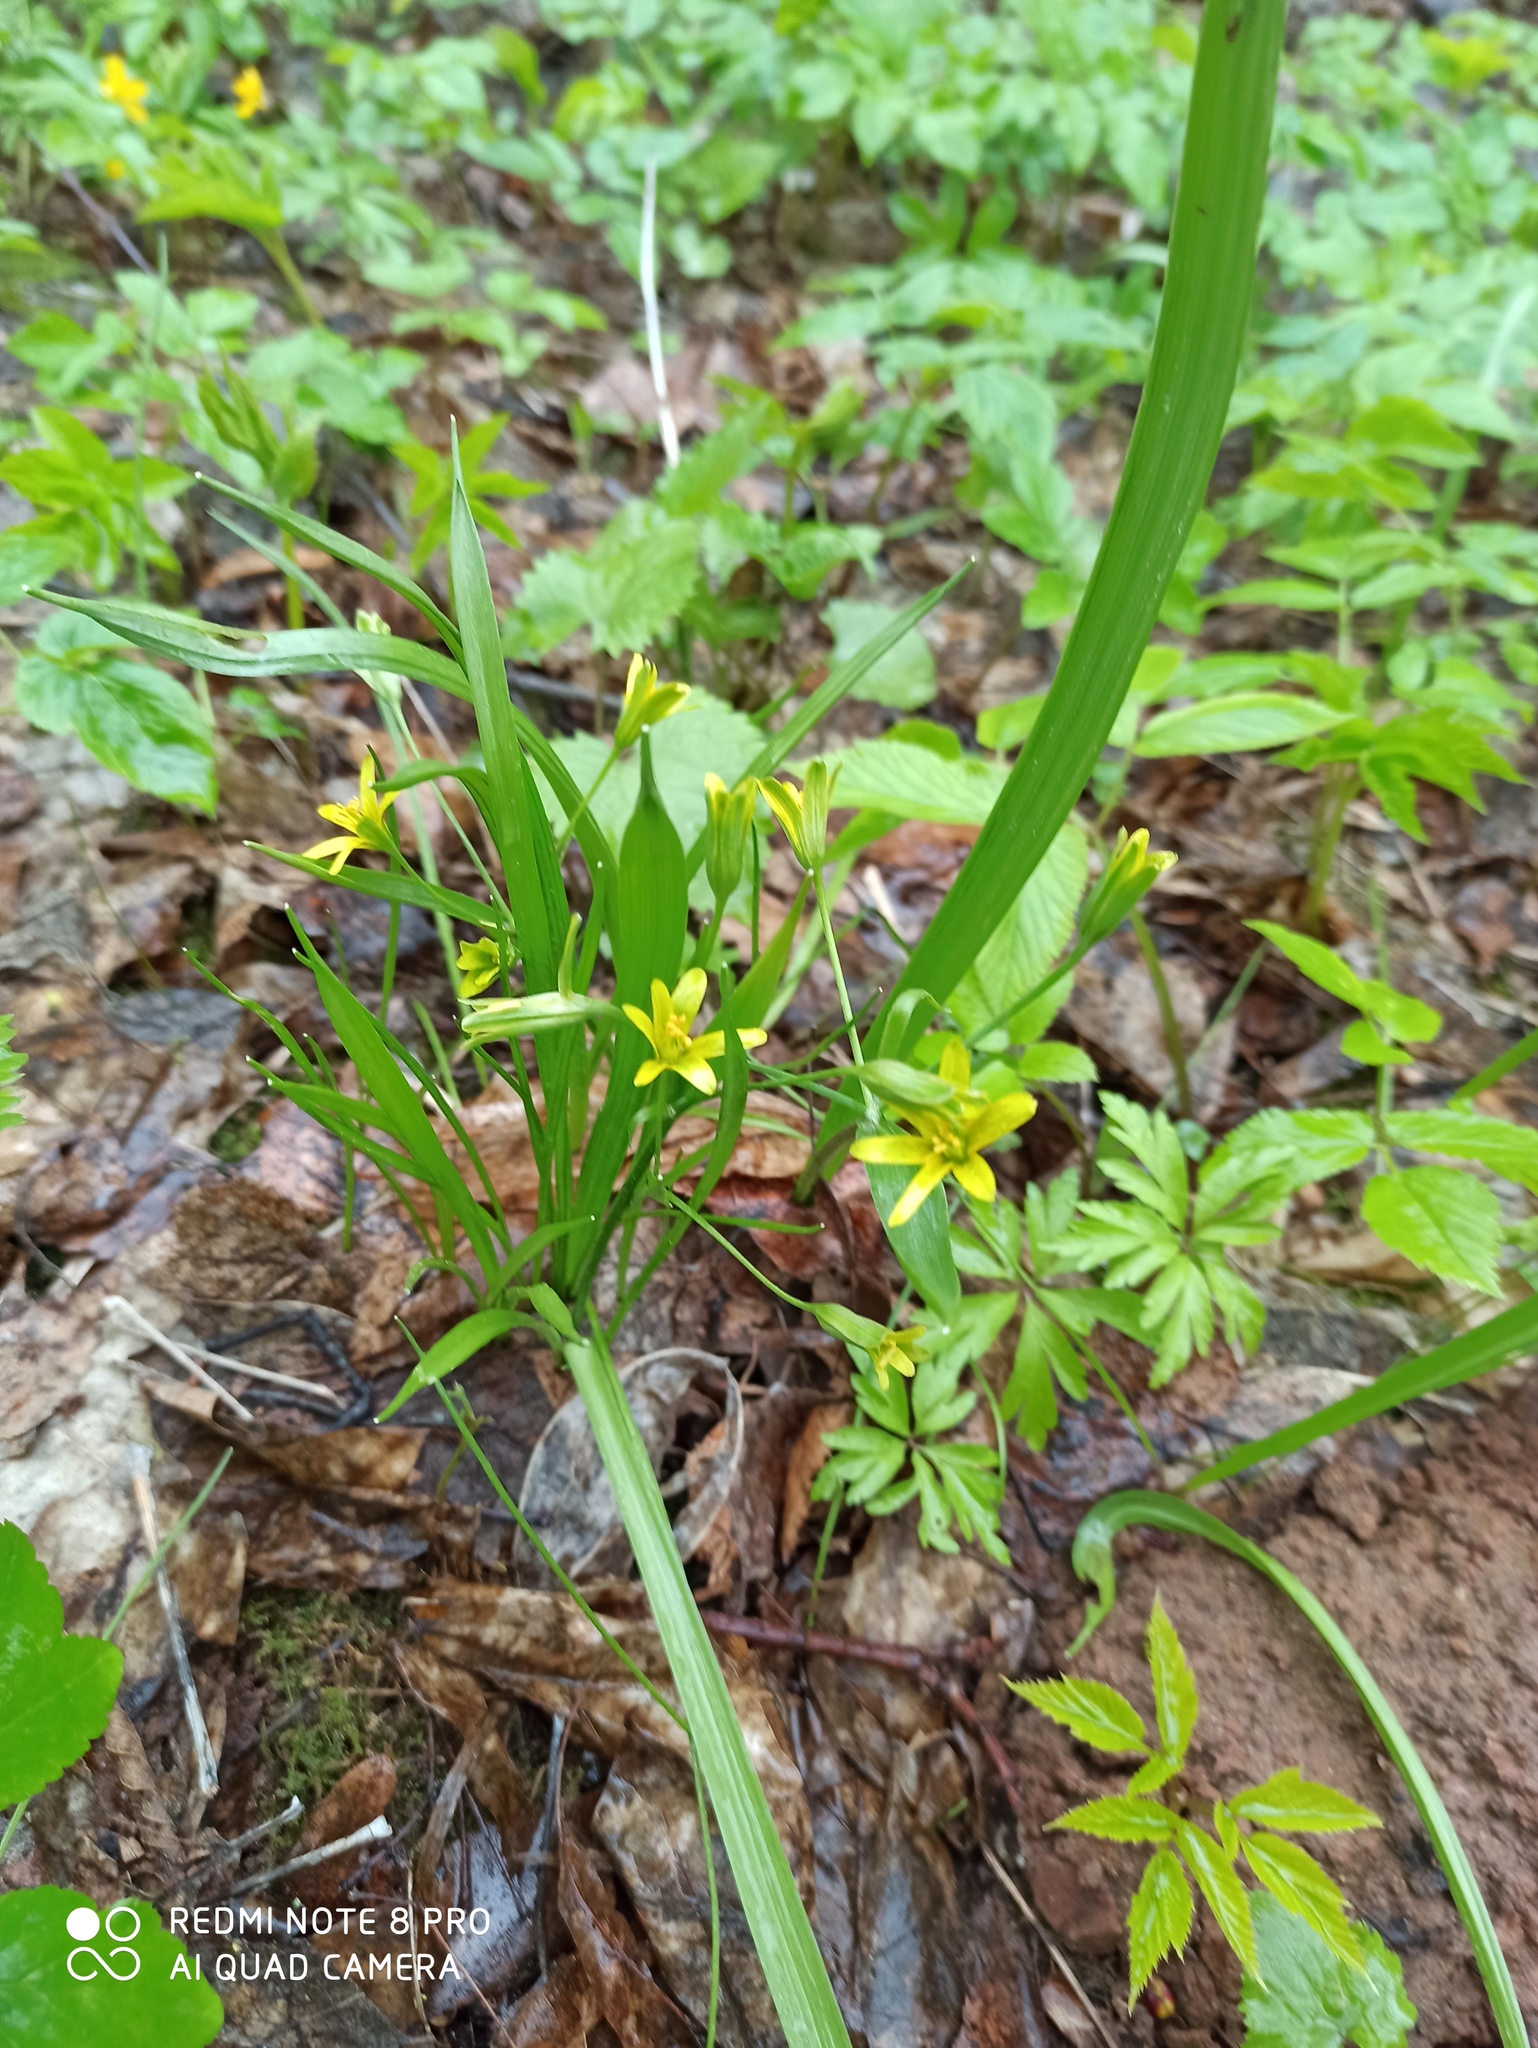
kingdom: Plantae
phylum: Tracheophyta
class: Liliopsida
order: Liliales
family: Liliaceae
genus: Gagea
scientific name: Gagea lutea
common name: Yellow star-of-bethlehem
